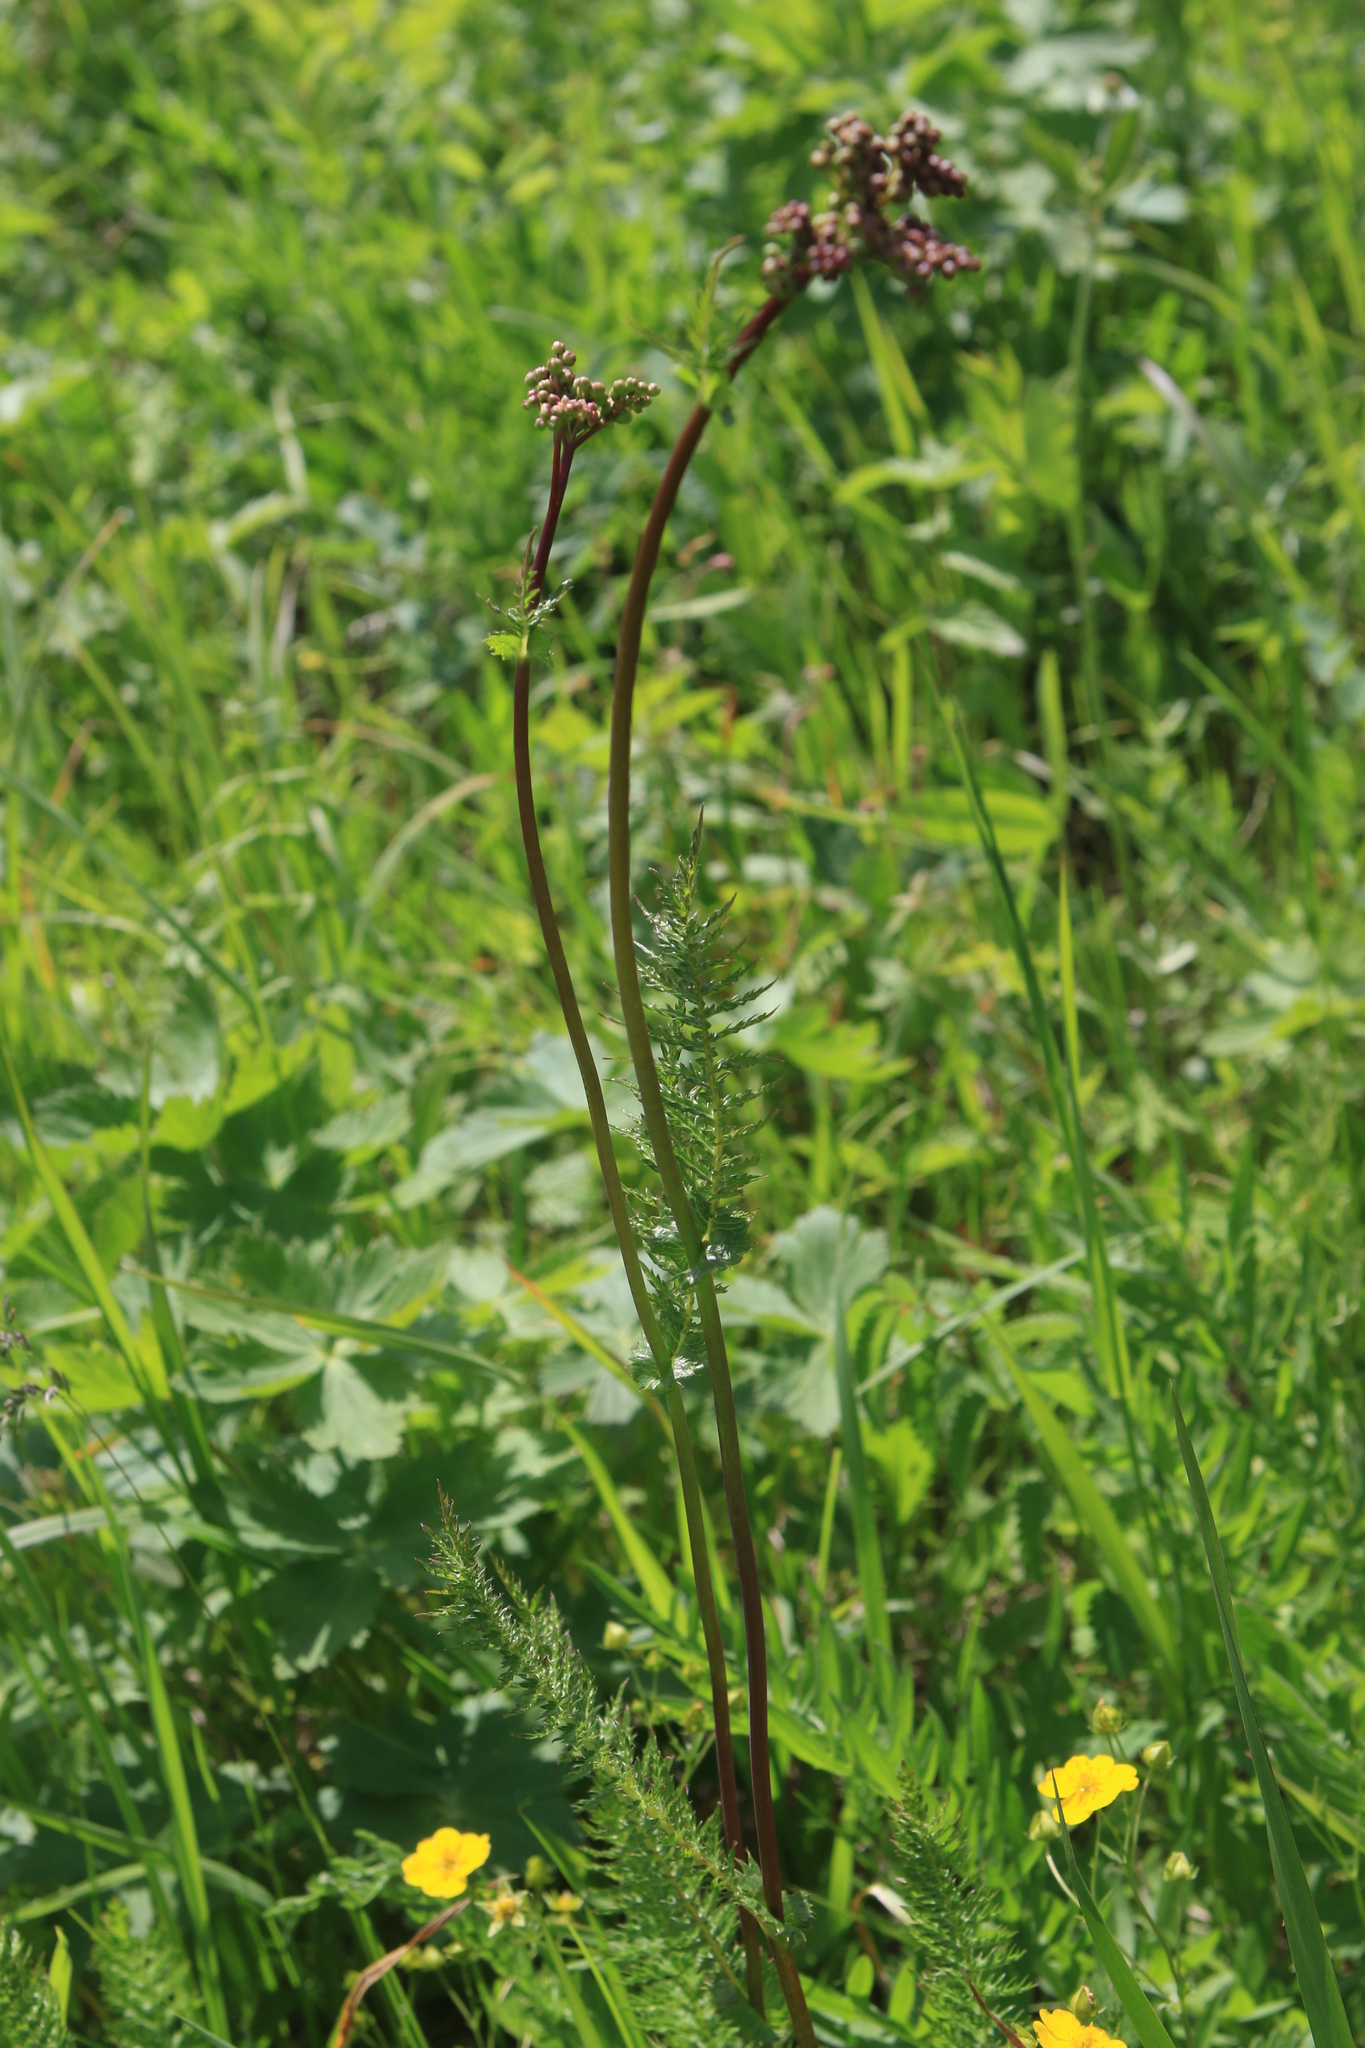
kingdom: Plantae
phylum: Tracheophyta
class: Magnoliopsida
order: Rosales
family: Rosaceae
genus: Filipendula
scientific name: Filipendula vulgaris
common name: Dropwort
